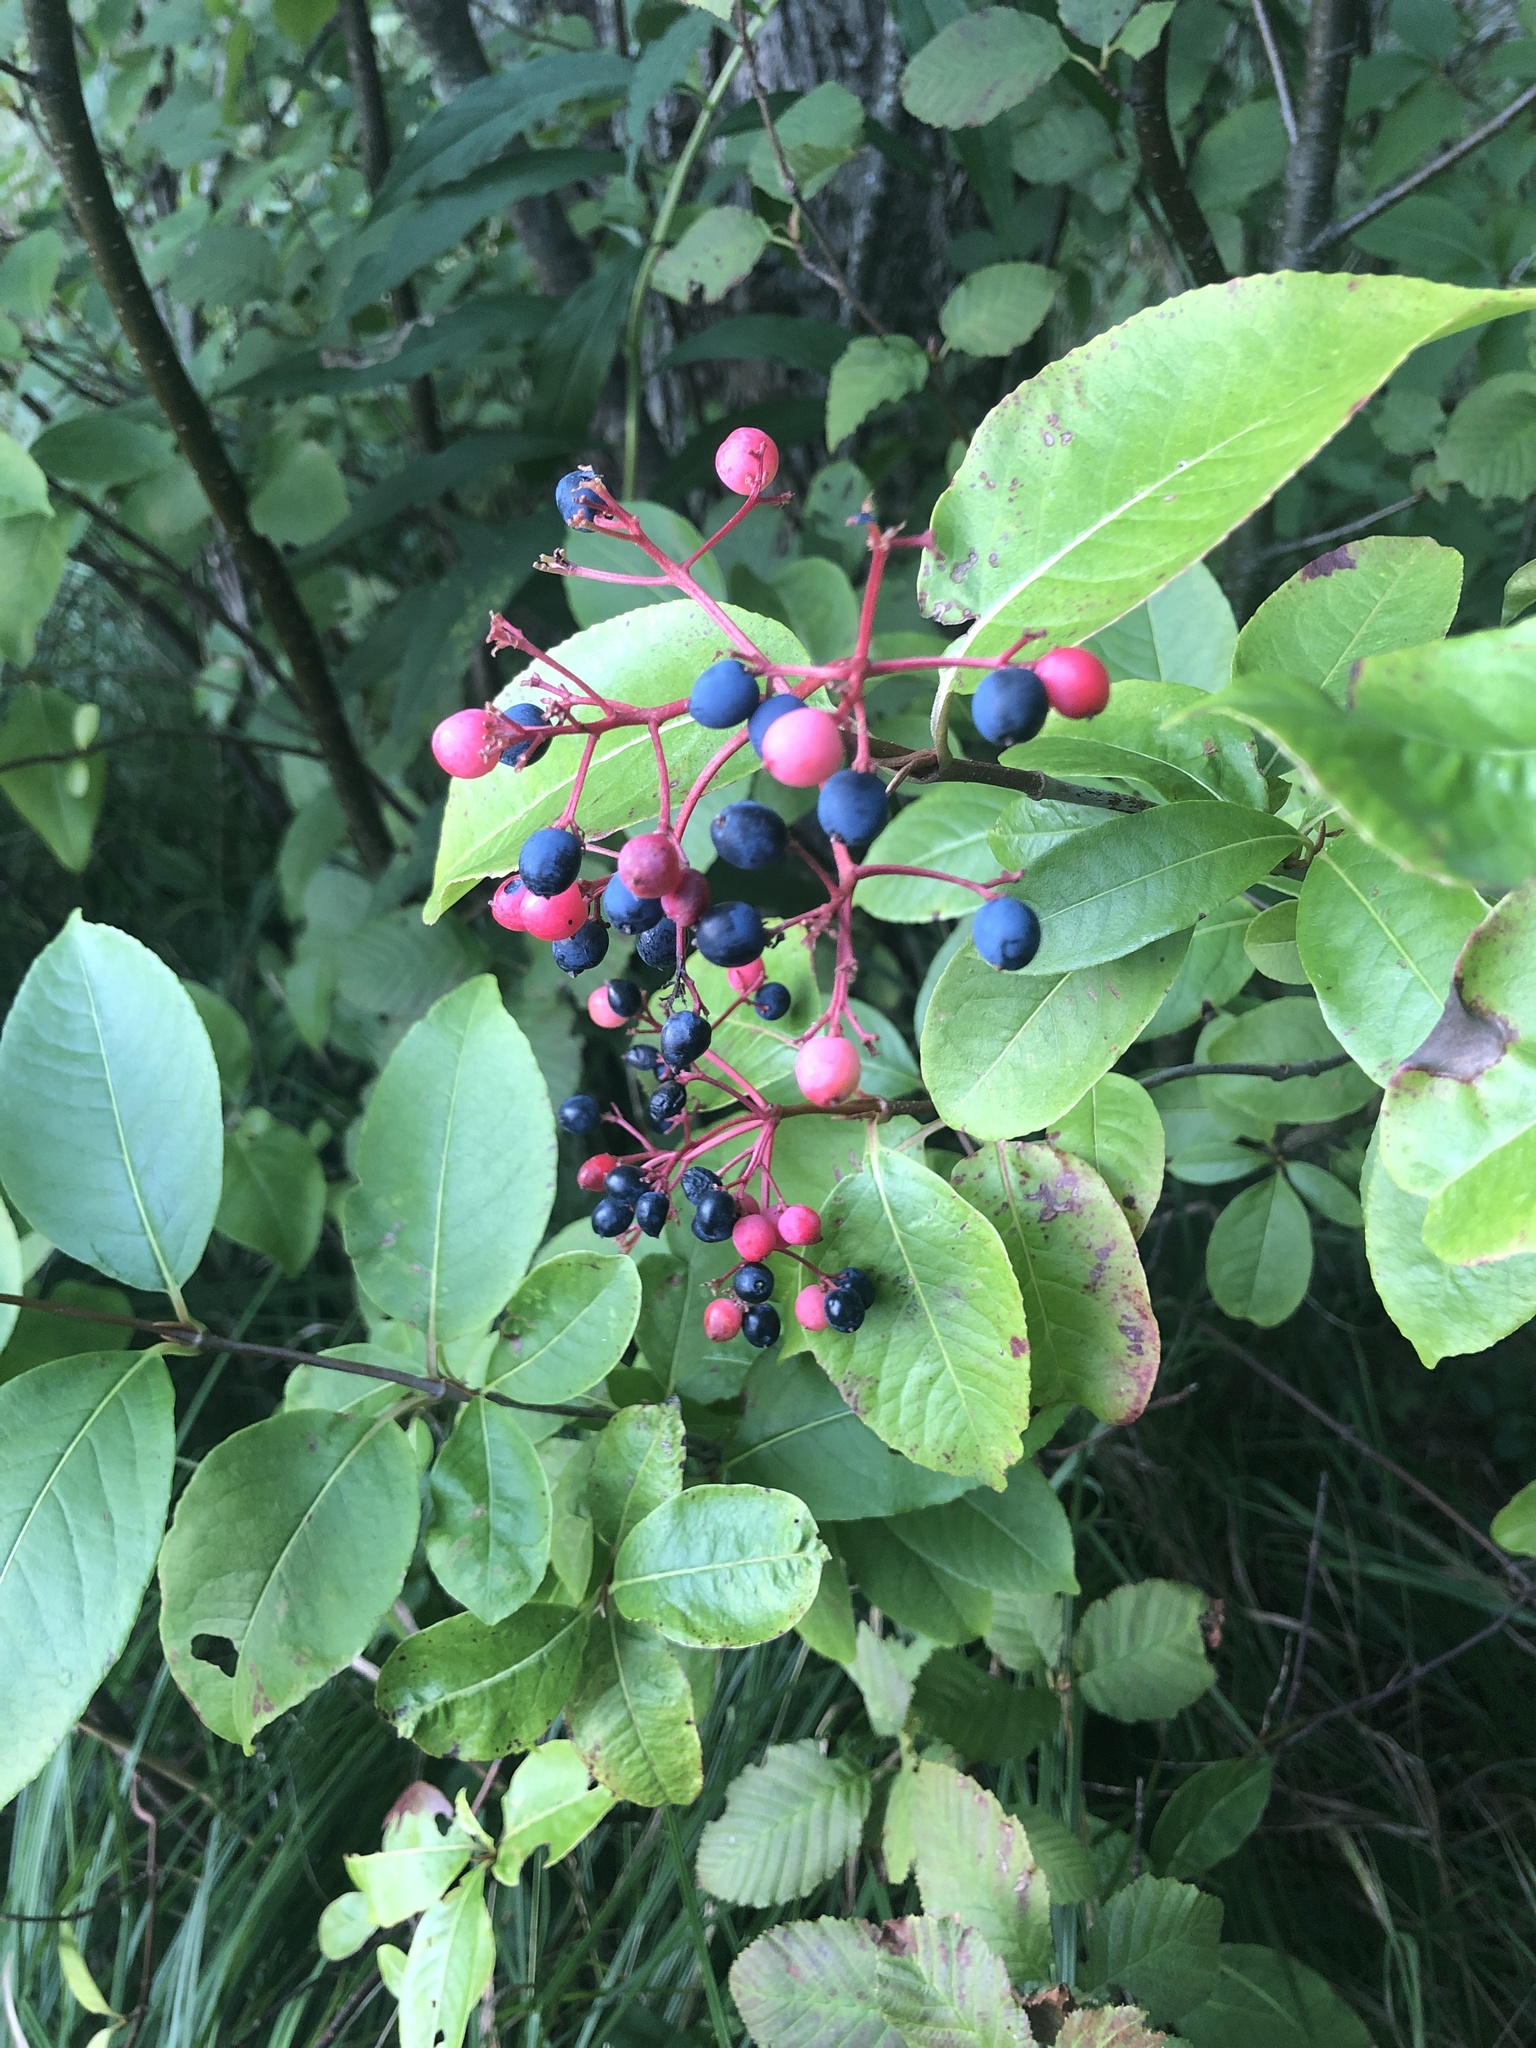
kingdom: Plantae
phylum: Tracheophyta
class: Magnoliopsida
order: Dipsacales
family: Viburnaceae
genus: Viburnum
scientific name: Viburnum cassinoides
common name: Swamp haw
